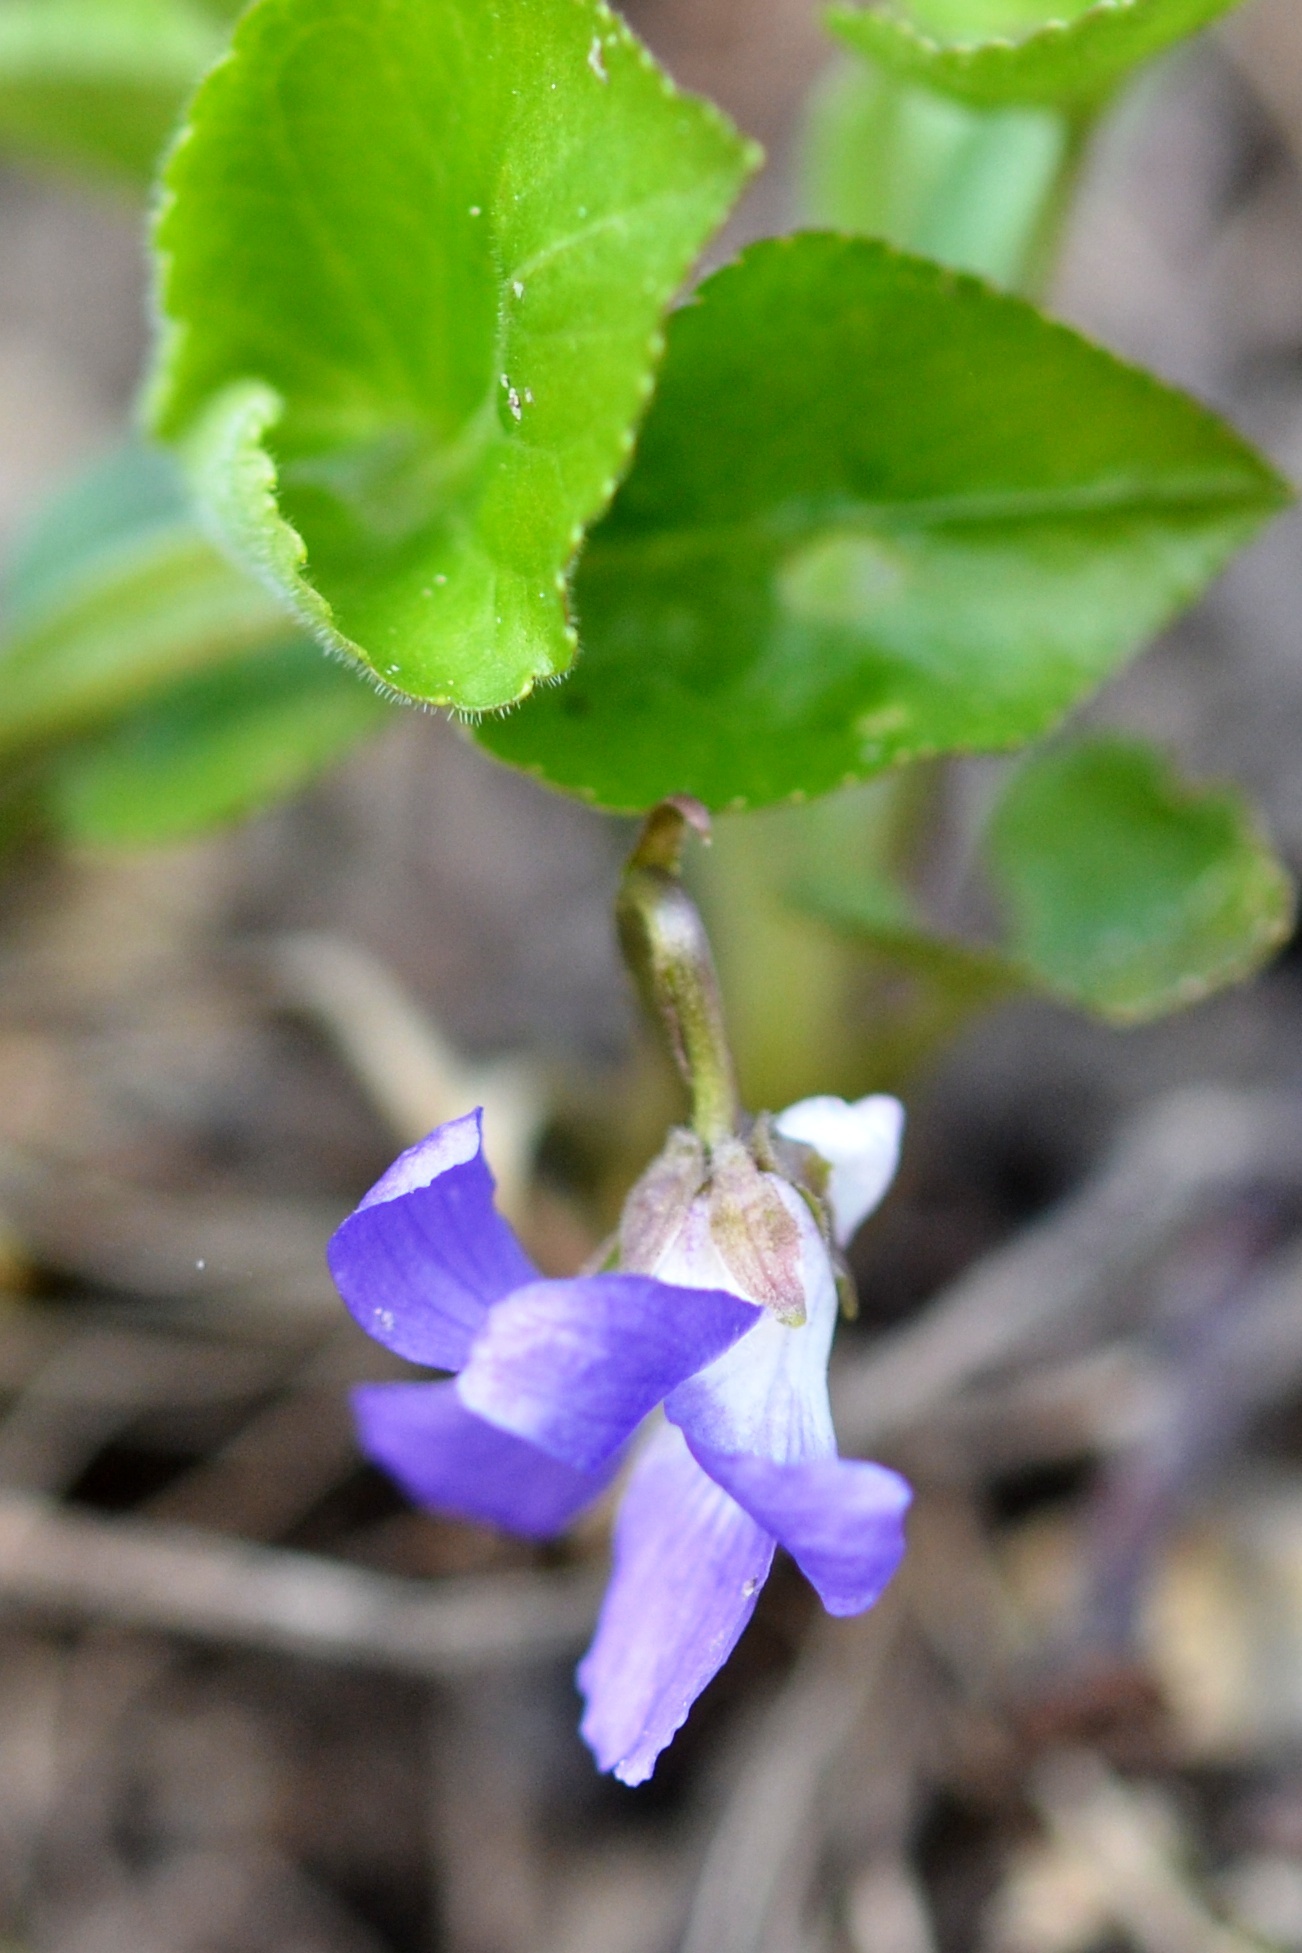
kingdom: Plantae
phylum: Tracheophyta
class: Magnoliopsida
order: Malpighiales
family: Violaceae
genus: Viola
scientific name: Viola collina
